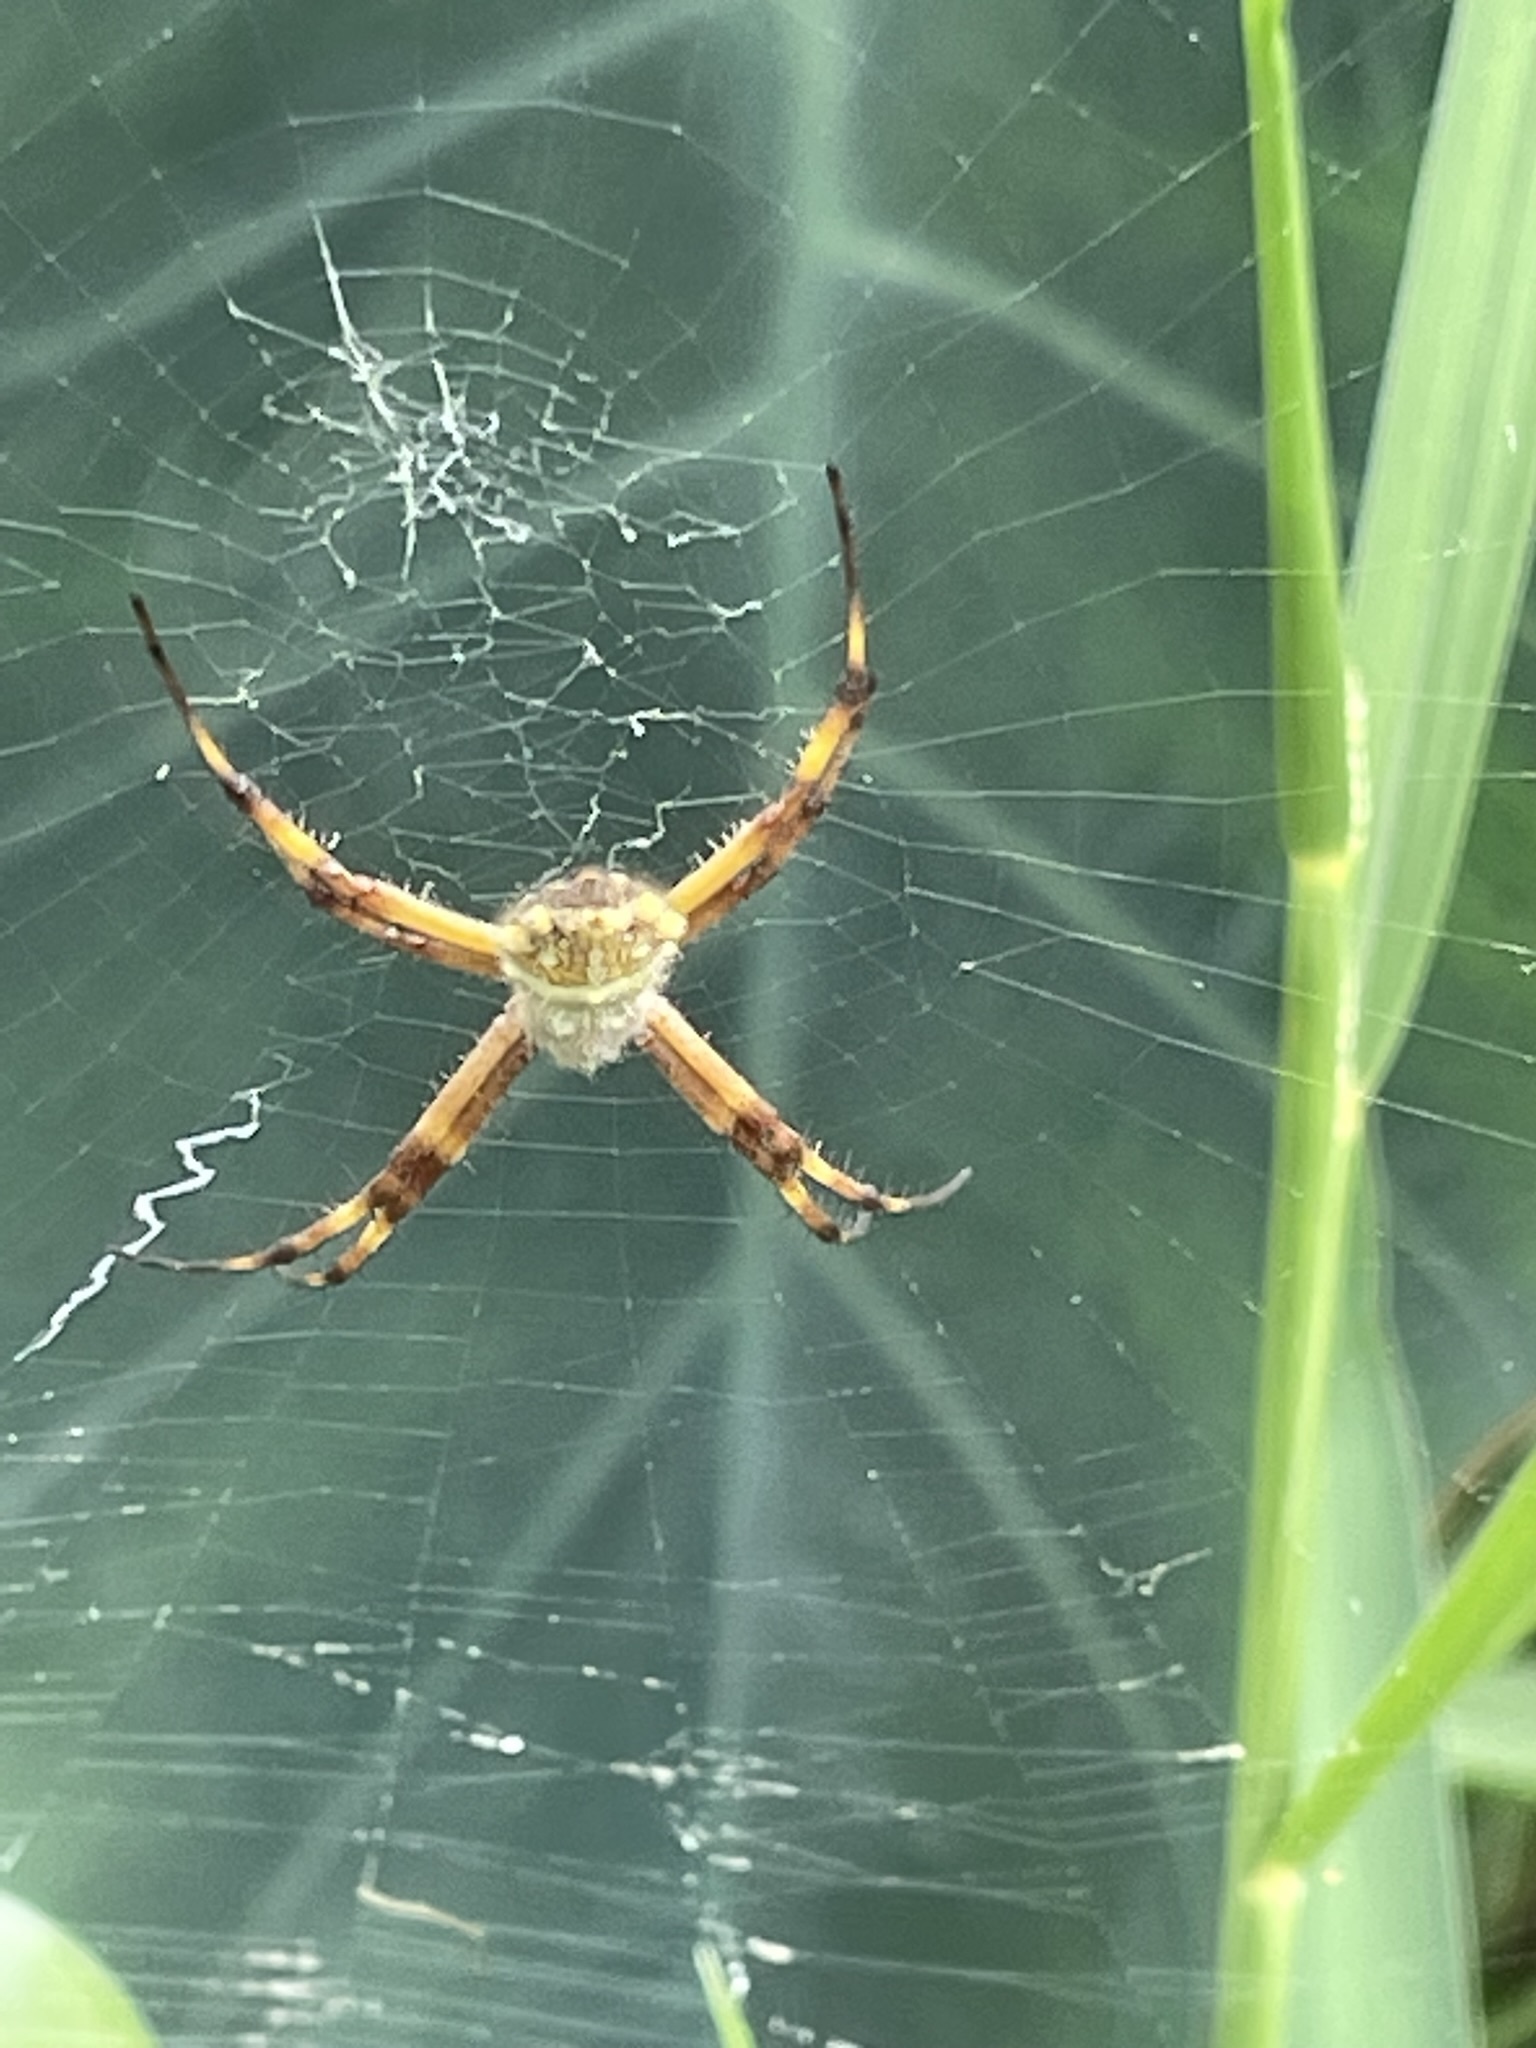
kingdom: Animalia
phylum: Arthropoda
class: Arachnida
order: Araneae
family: Araneidae
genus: Argiope
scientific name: Argiope argentata
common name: Orb weavers
